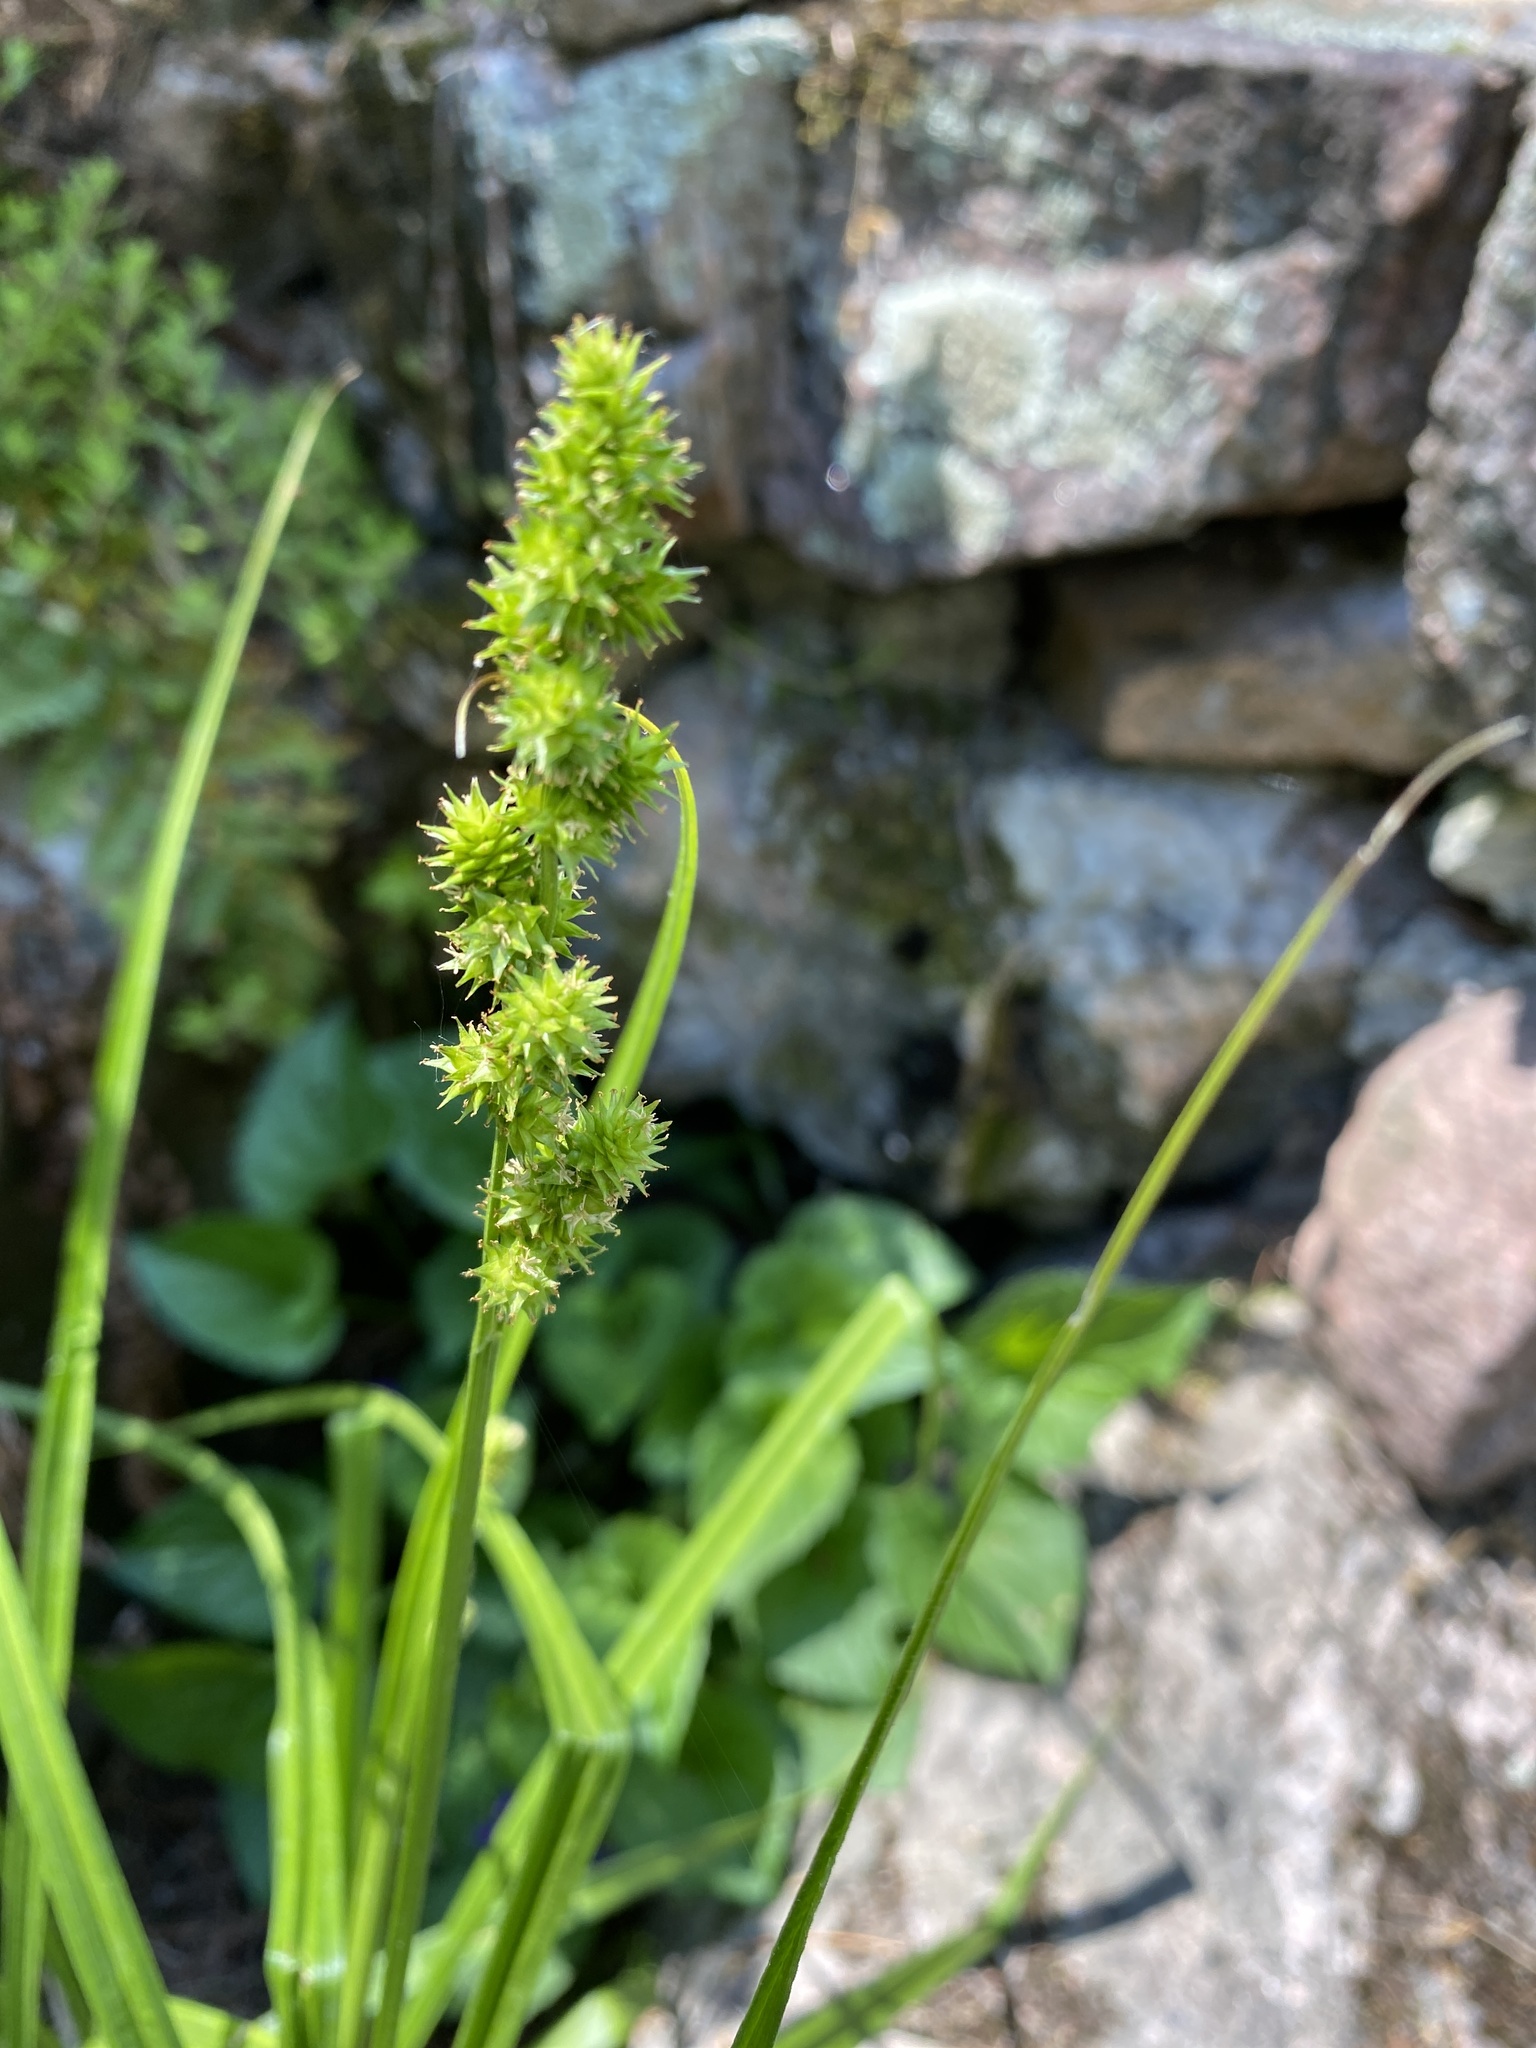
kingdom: Plantae
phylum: Tracheophyta
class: Liliopsida
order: Poales
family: Cyperaceae
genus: Carex
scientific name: Carex sparganioides
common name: Burreed sedge
